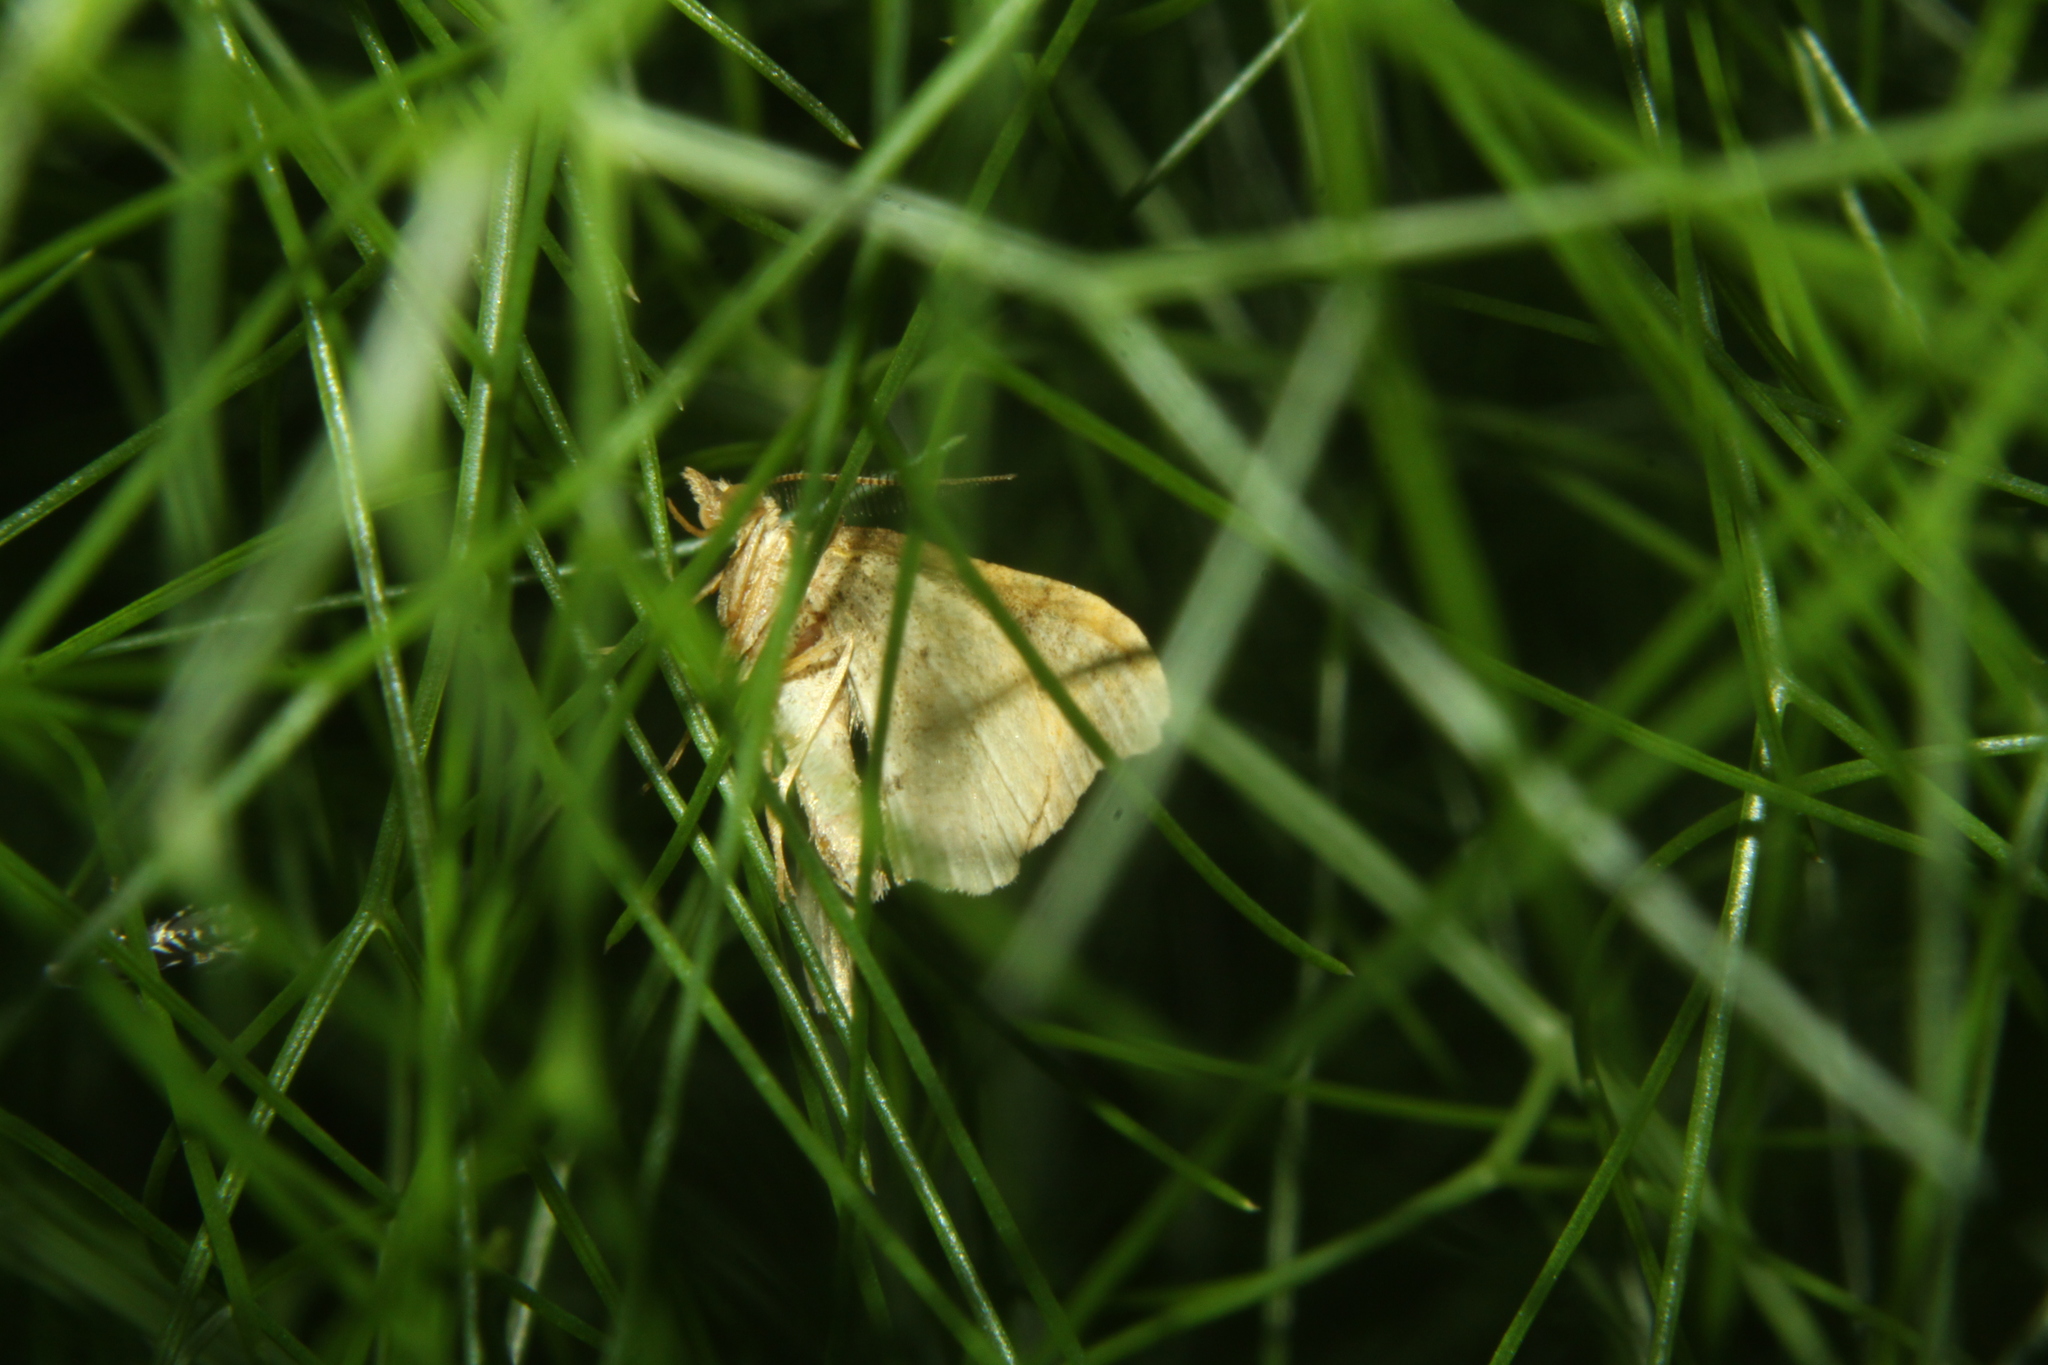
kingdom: Animalia
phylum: Arthropoda
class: Insecta
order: Lepidoptera
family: Geometridae
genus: Homodotis
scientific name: Homodotis megaspilata
